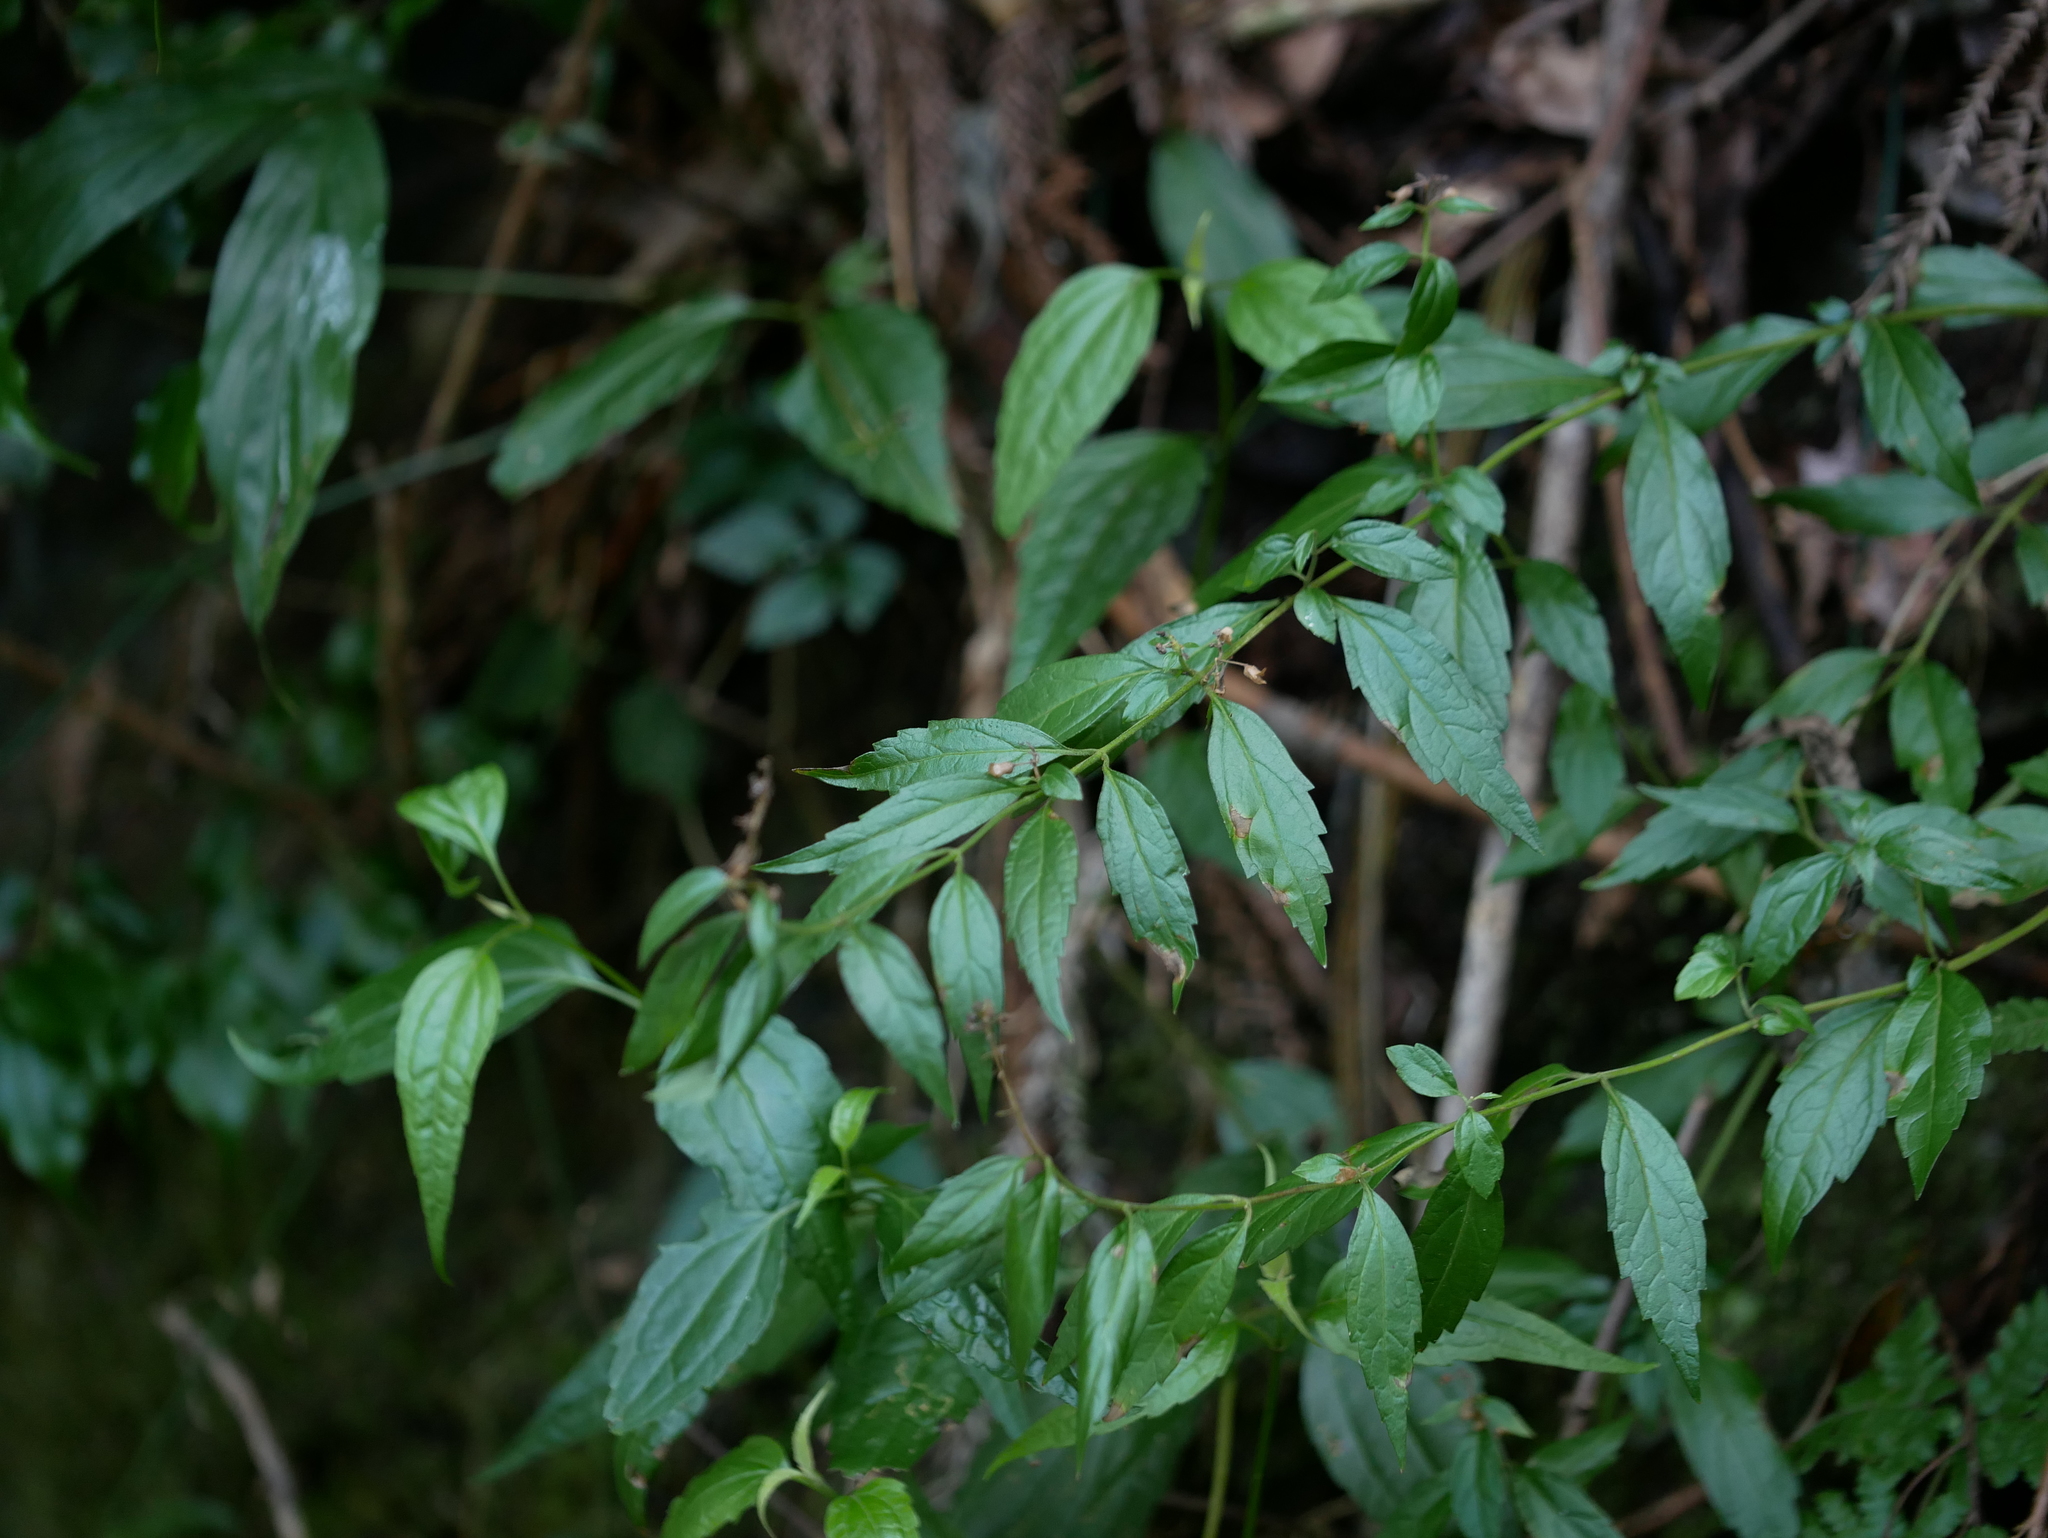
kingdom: Plantae
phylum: Tracheophyta
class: Magnoliopsida
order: Lamiales
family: Lamiaceae
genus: Teucrium
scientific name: Teucrium bidentatum
